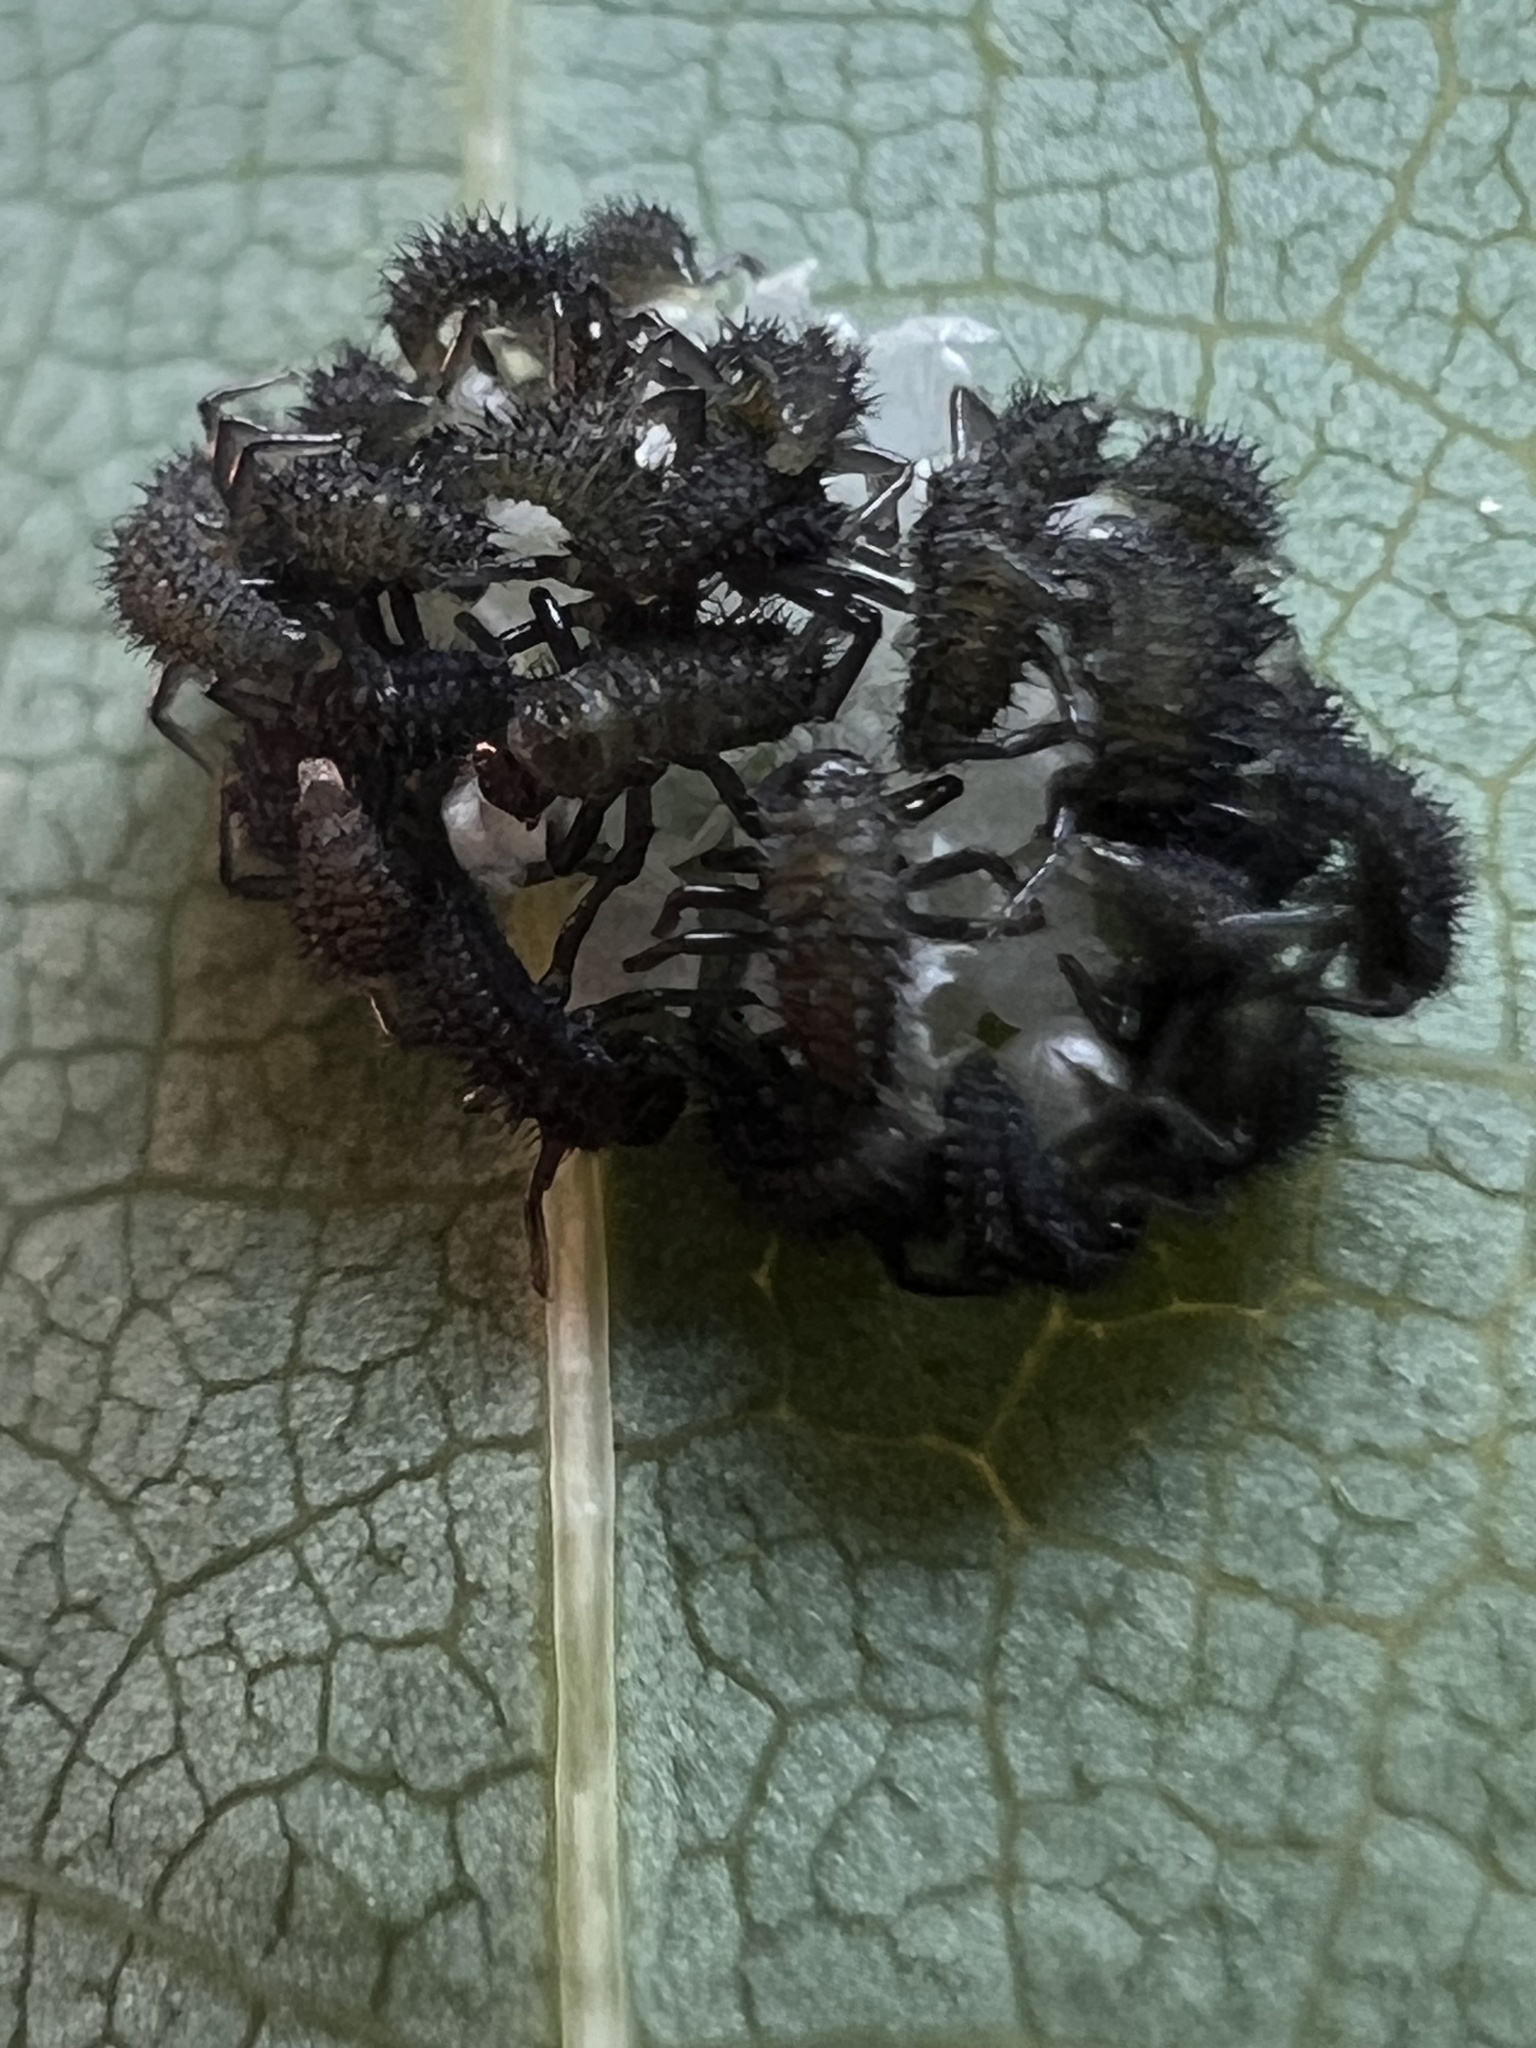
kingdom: Animalia
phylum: Arthropoda
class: Insecta
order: Coleoptera
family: Coccinellidae
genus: Harmonia
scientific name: Harmonia axyridis
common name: Harlequin ladybird
